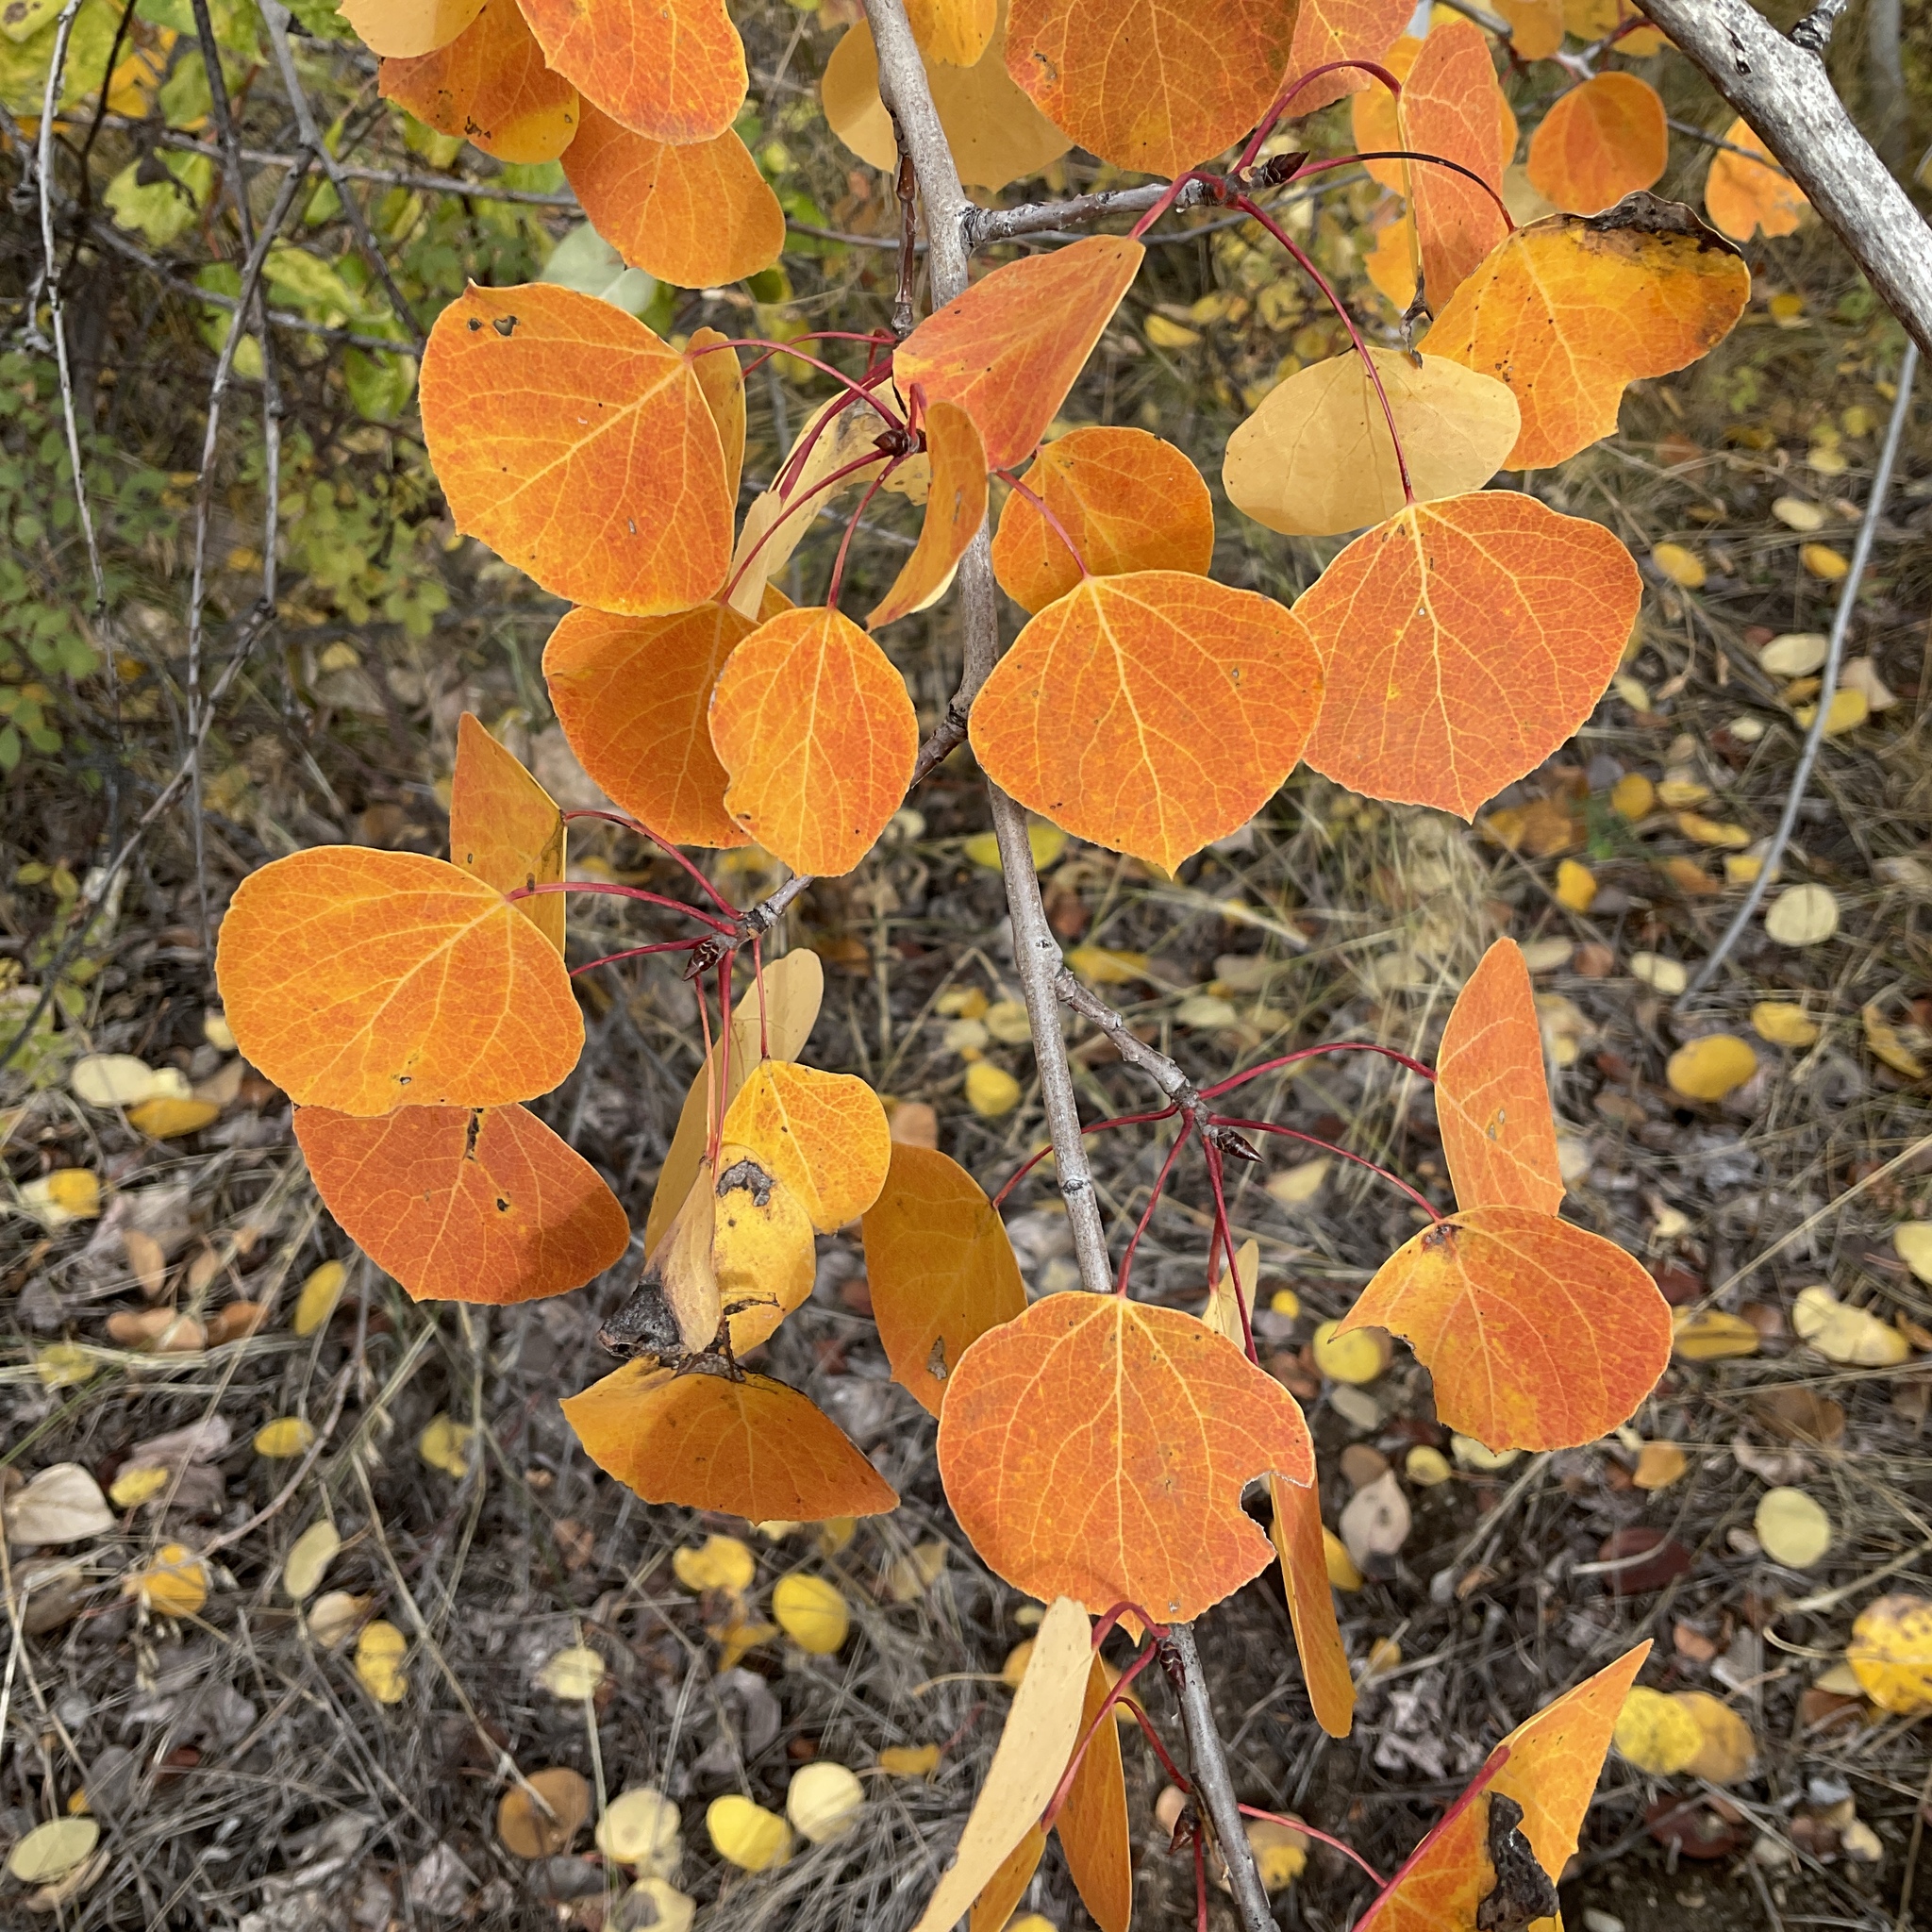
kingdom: Plantae
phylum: Tracheophyta
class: Magnoliopsida
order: Malpighiales
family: Salicaceae
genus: Populus
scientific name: Populus tremuloides
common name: Quaking aspen
